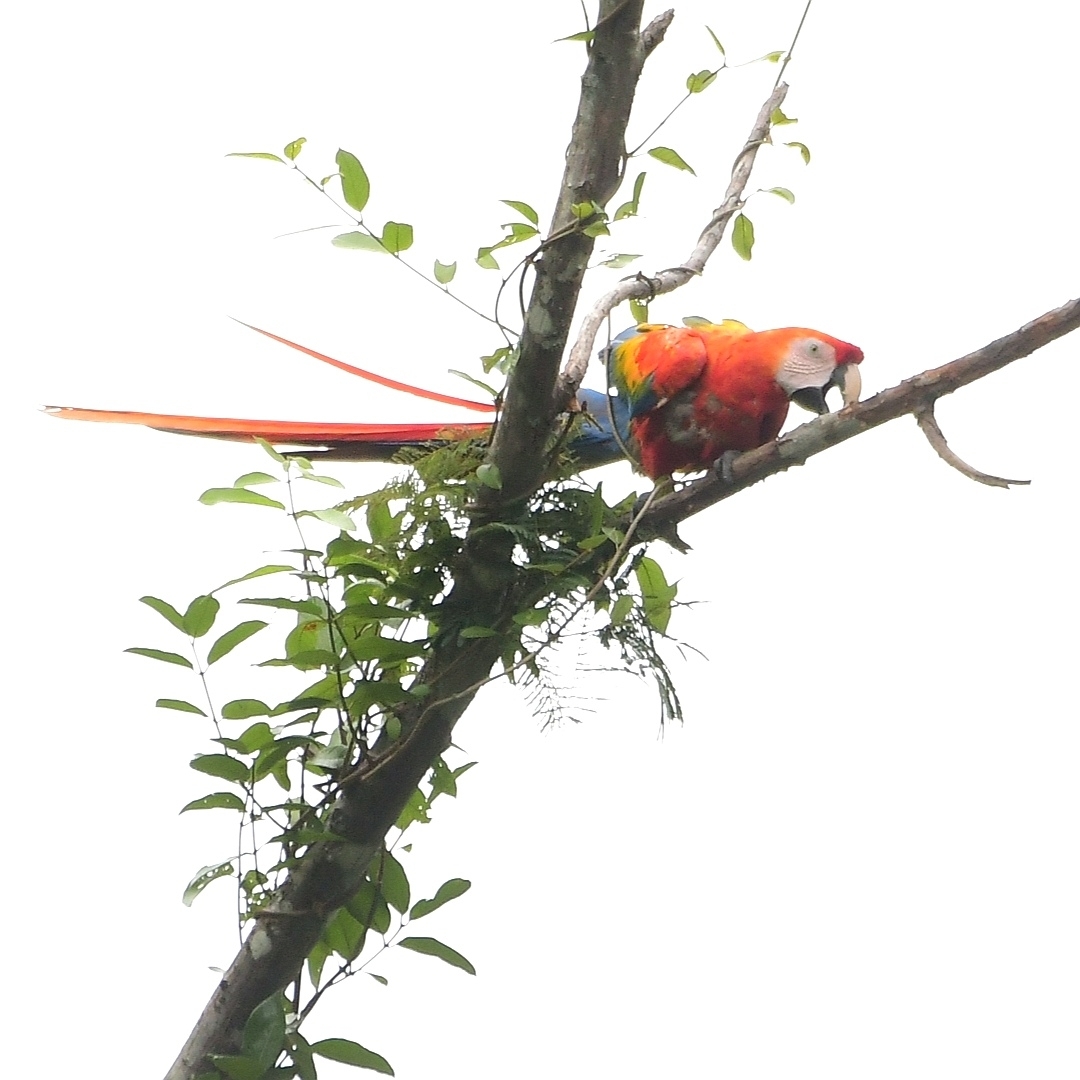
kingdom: Animalia
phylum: Chordata
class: Aves
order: Psittaciformes
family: Psittacidae
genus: Ara
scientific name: Ara macao
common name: Scarlet macaw
